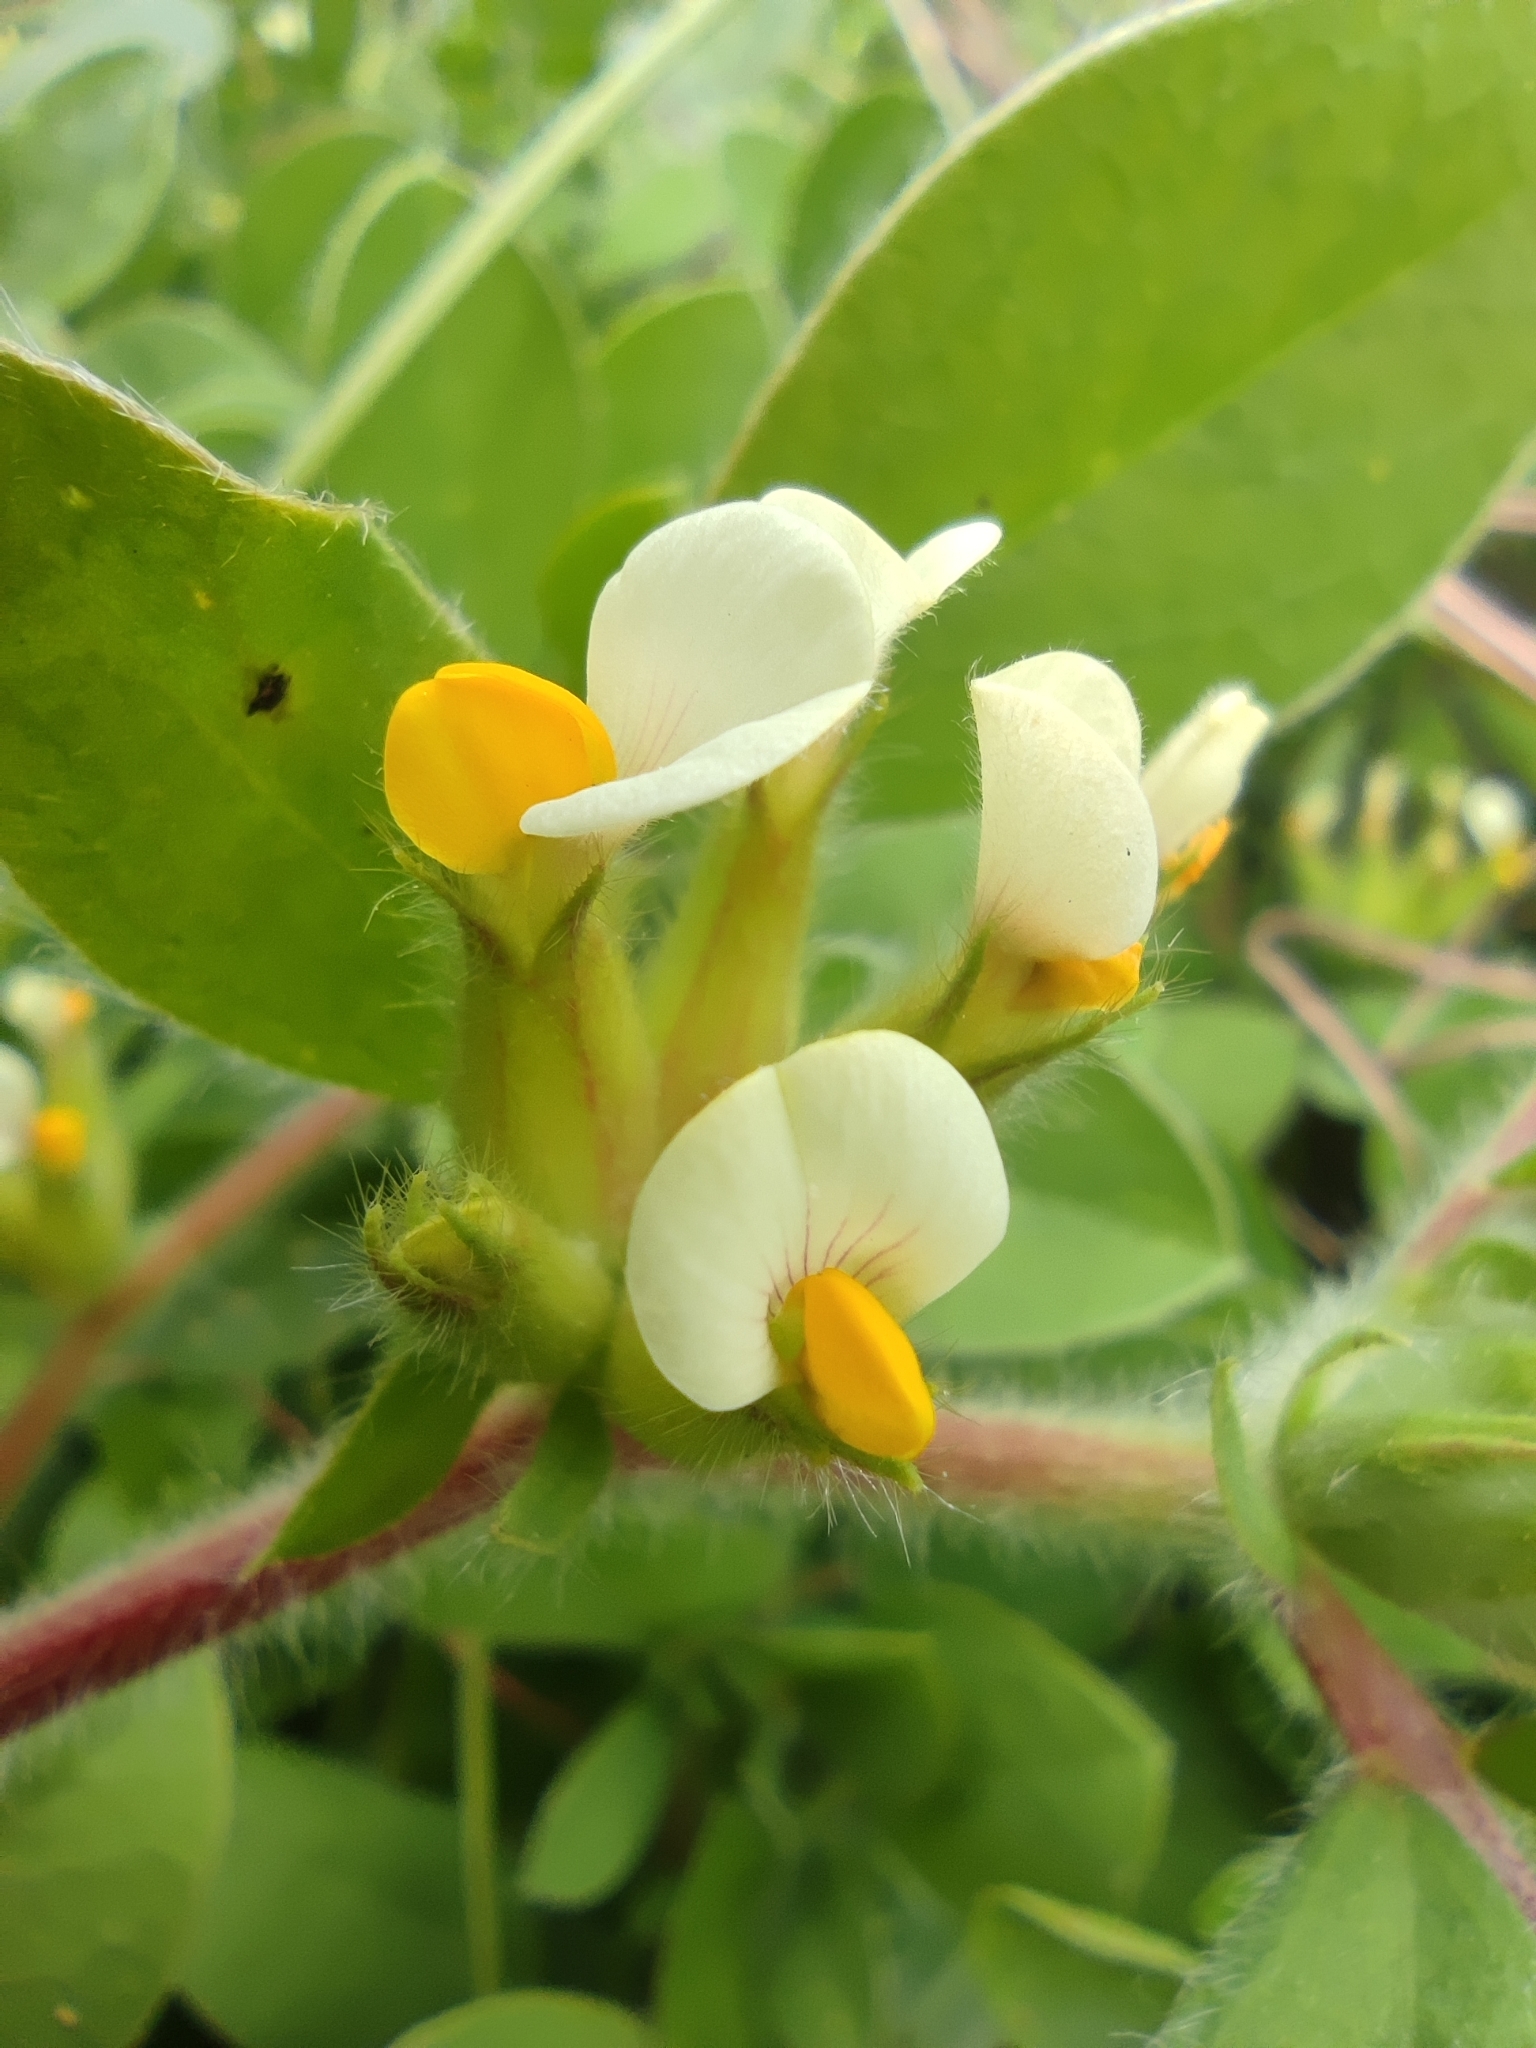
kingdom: Plantae
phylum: Tracheophyta
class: Magnoliopsida
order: Fabales
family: Fabaceae
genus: Tripodion
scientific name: Tripodion tetraphyllum
